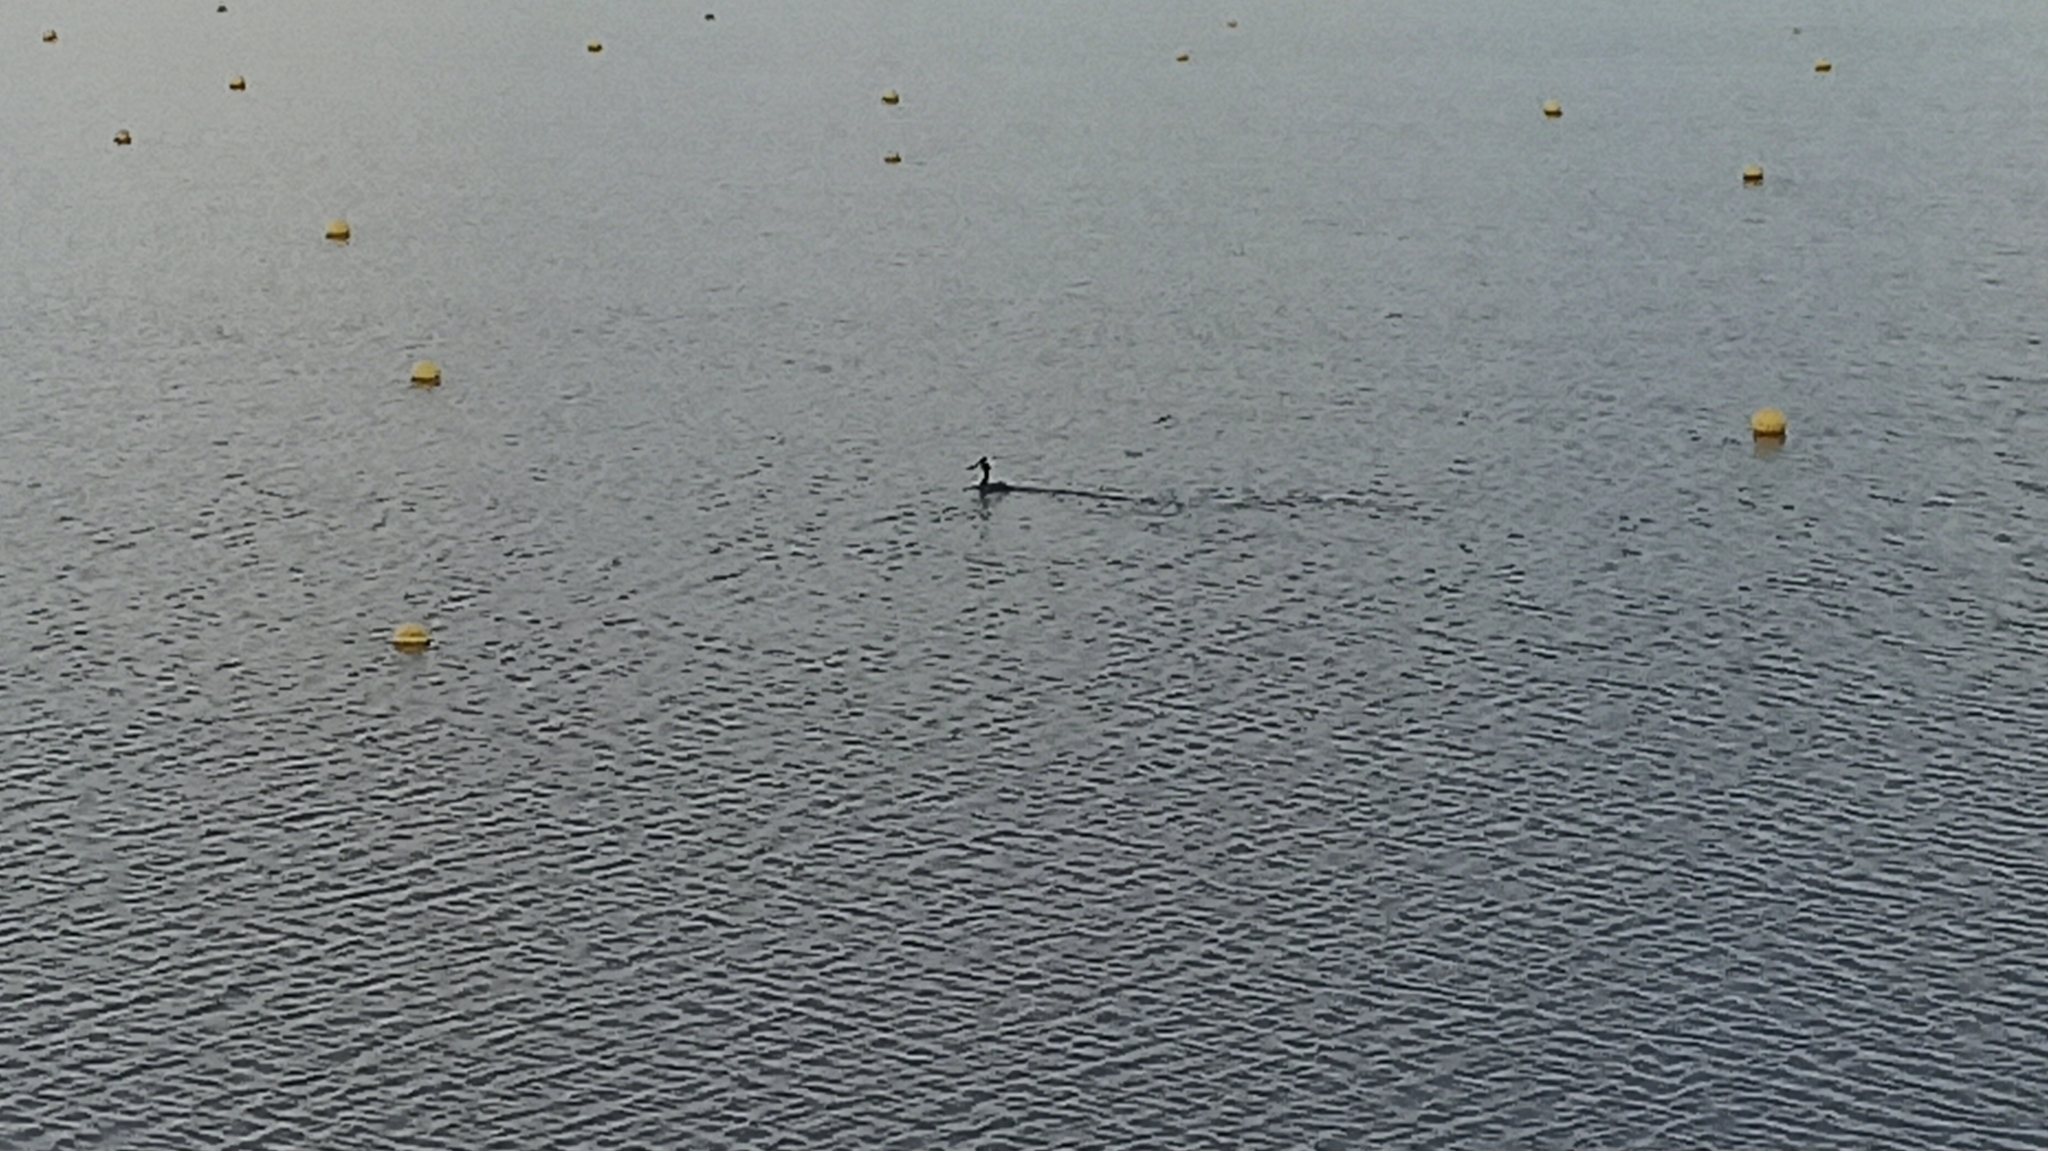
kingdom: Animalia
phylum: Chordata
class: Aves
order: Podicipediformes
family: Podicipedidae
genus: Podiceps
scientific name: Podiceps cristatus
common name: Great crested grebe
